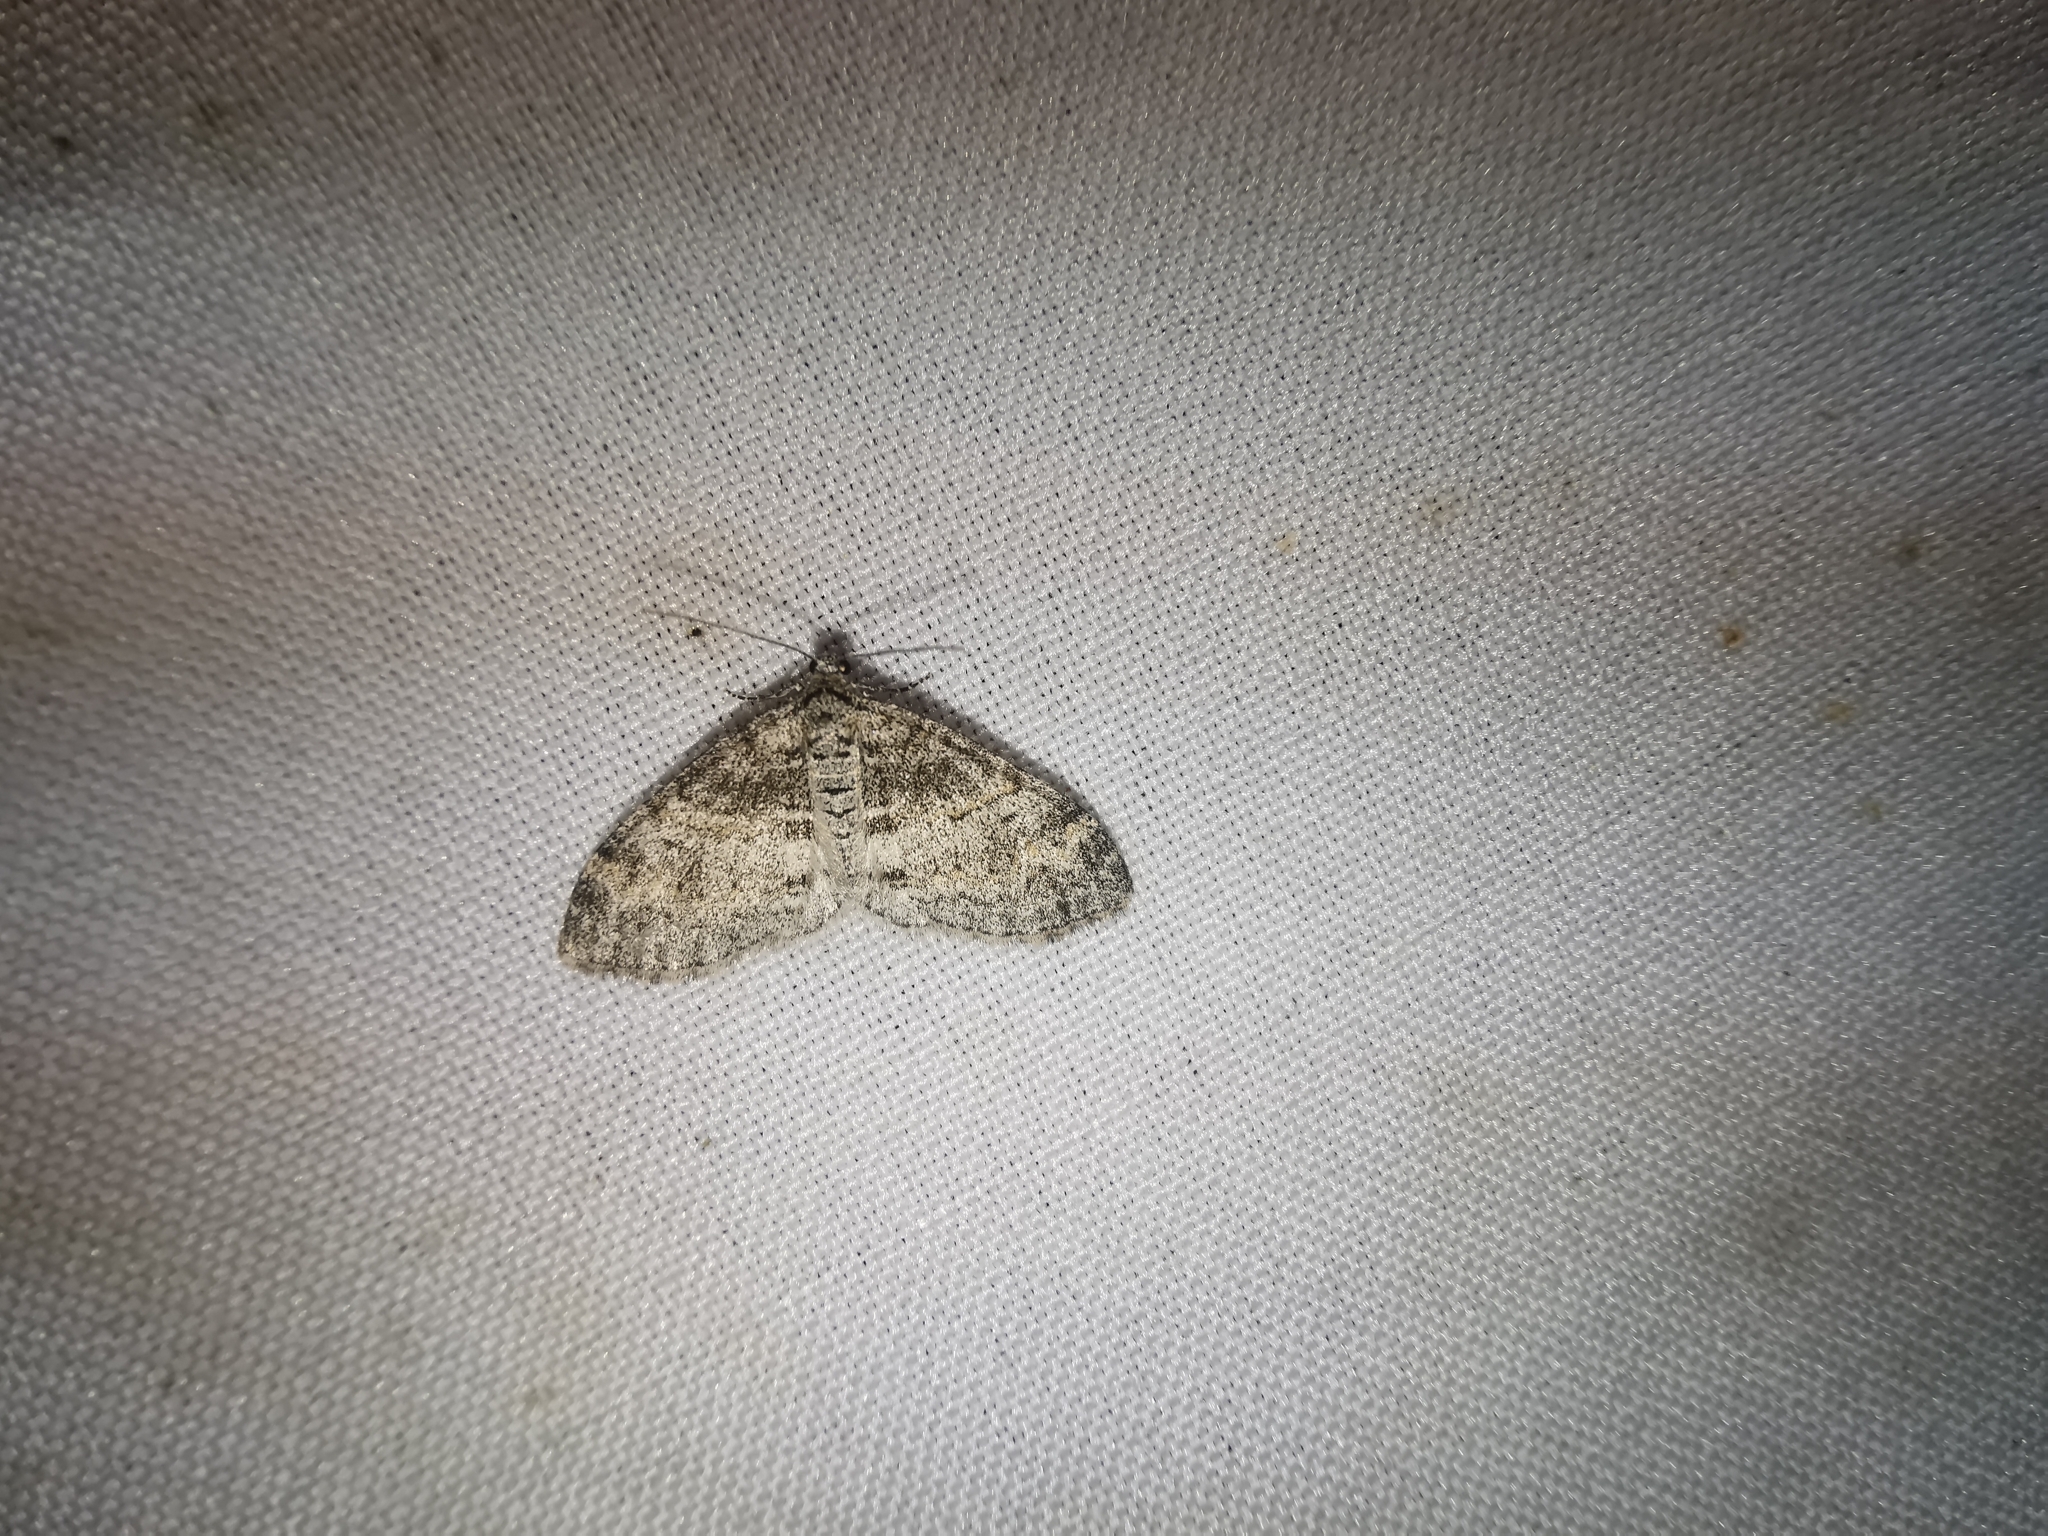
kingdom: Animalia
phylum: Arthropoda
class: Insecta
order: Lepidoptera
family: Geometridae
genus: Lobophora
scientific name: Lobophora halterata
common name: Seraphim
